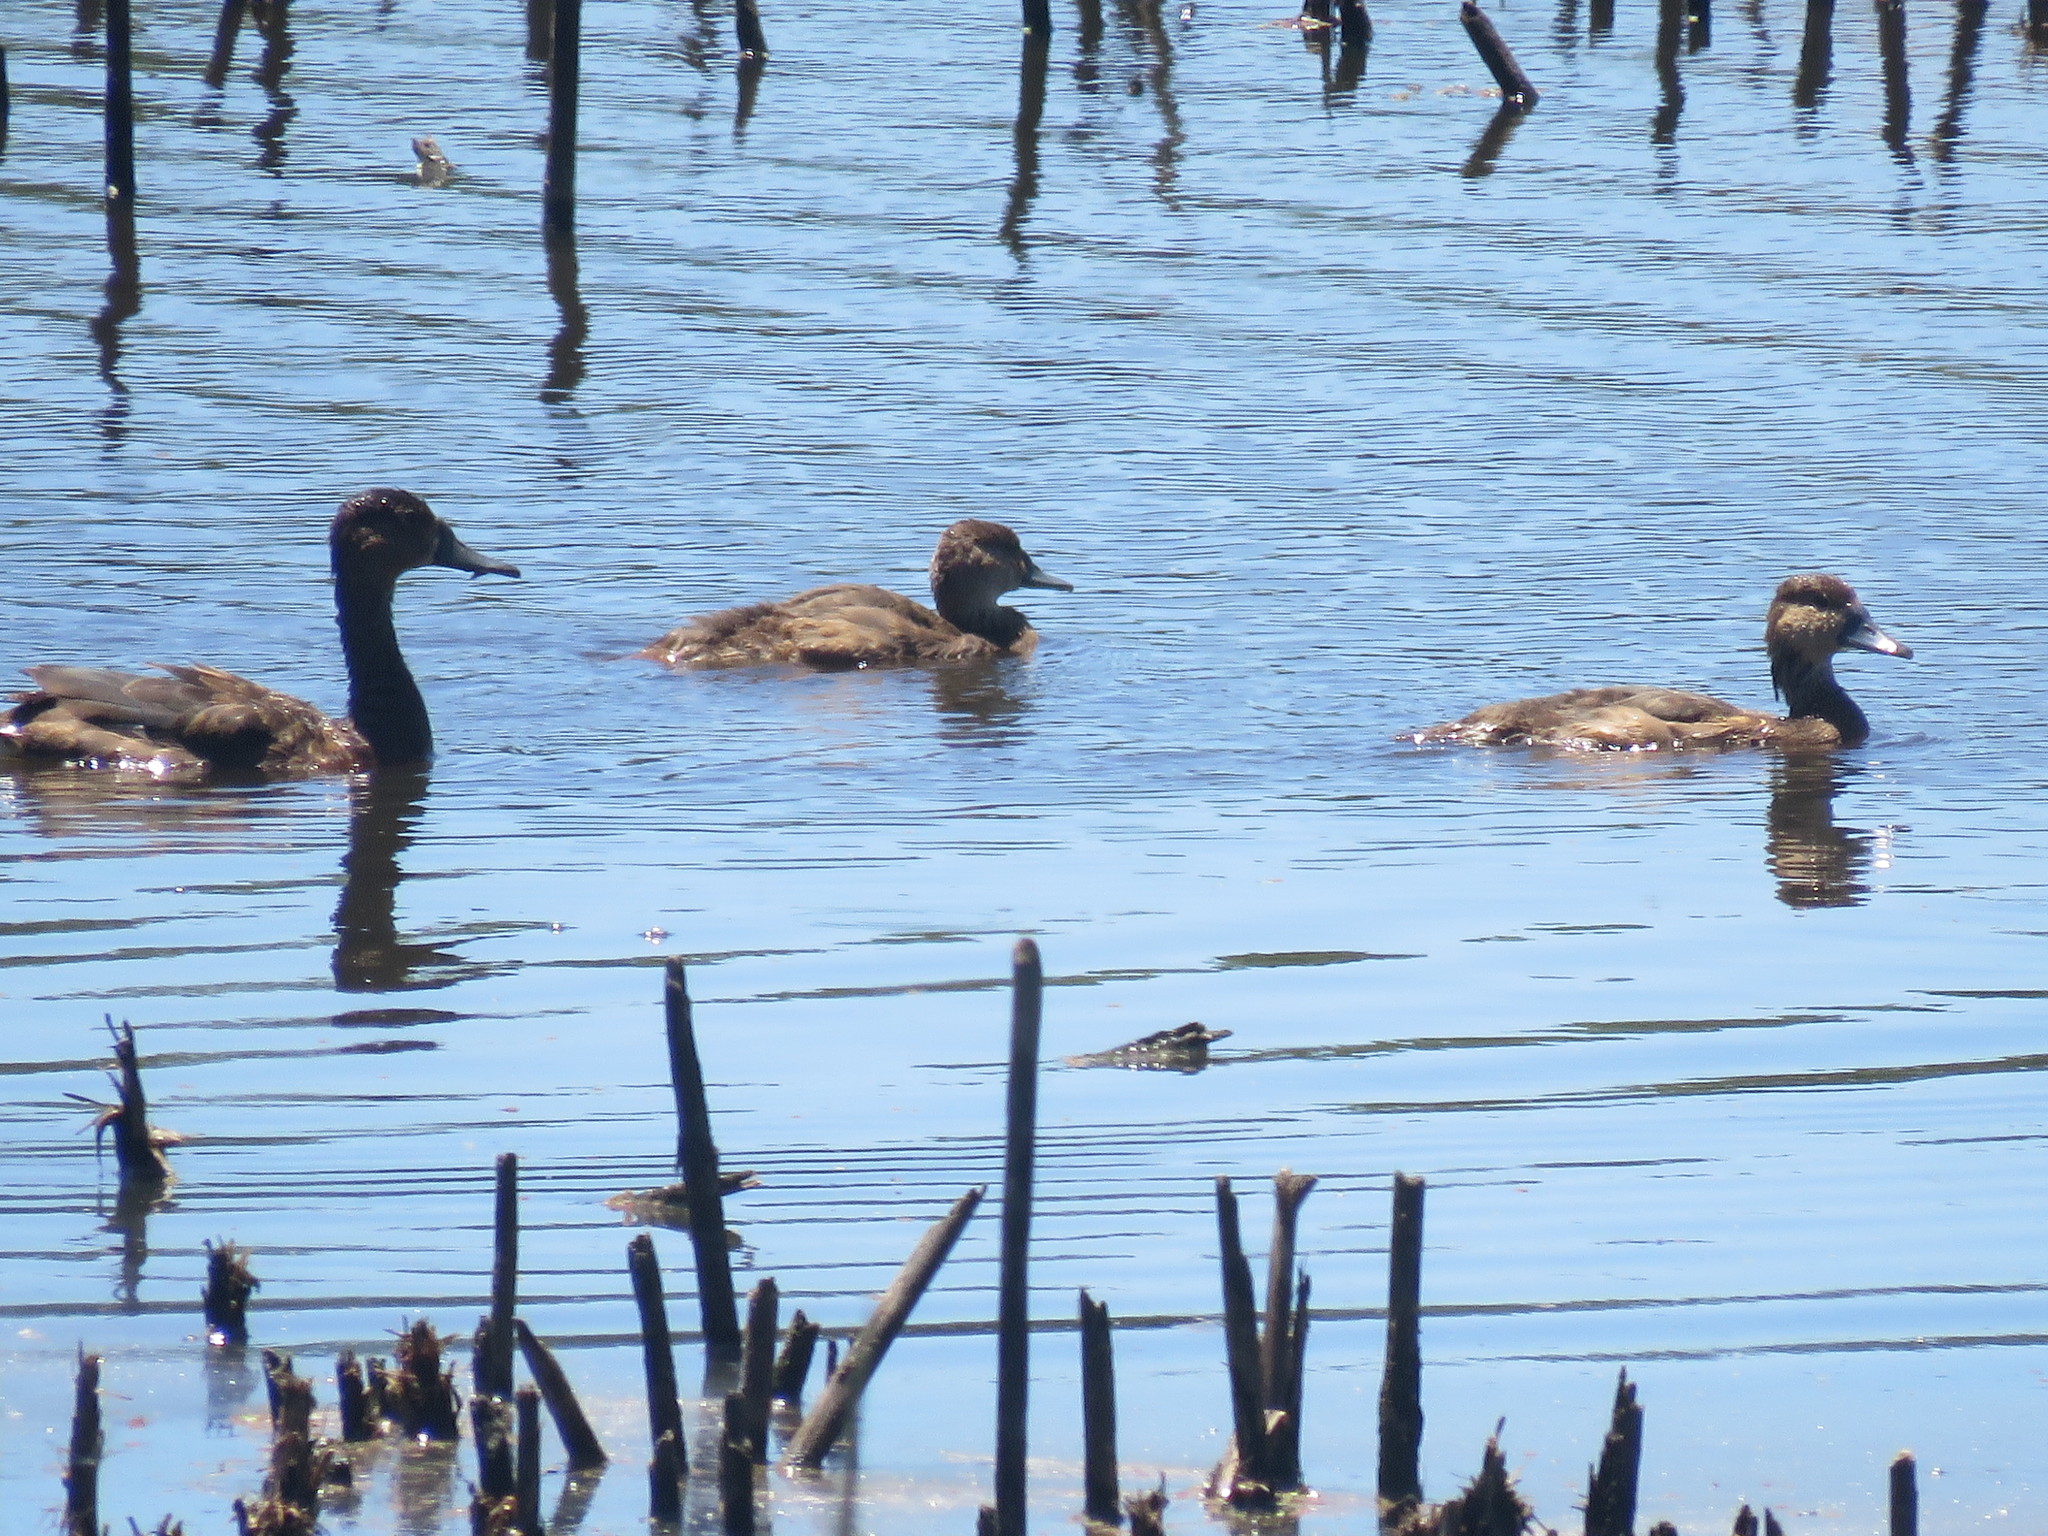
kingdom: Animalia
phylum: Chordata
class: Aves
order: Anseriformes
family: Anatidae
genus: Netta
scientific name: Netta peposaca
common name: Rosy-billed pochard
